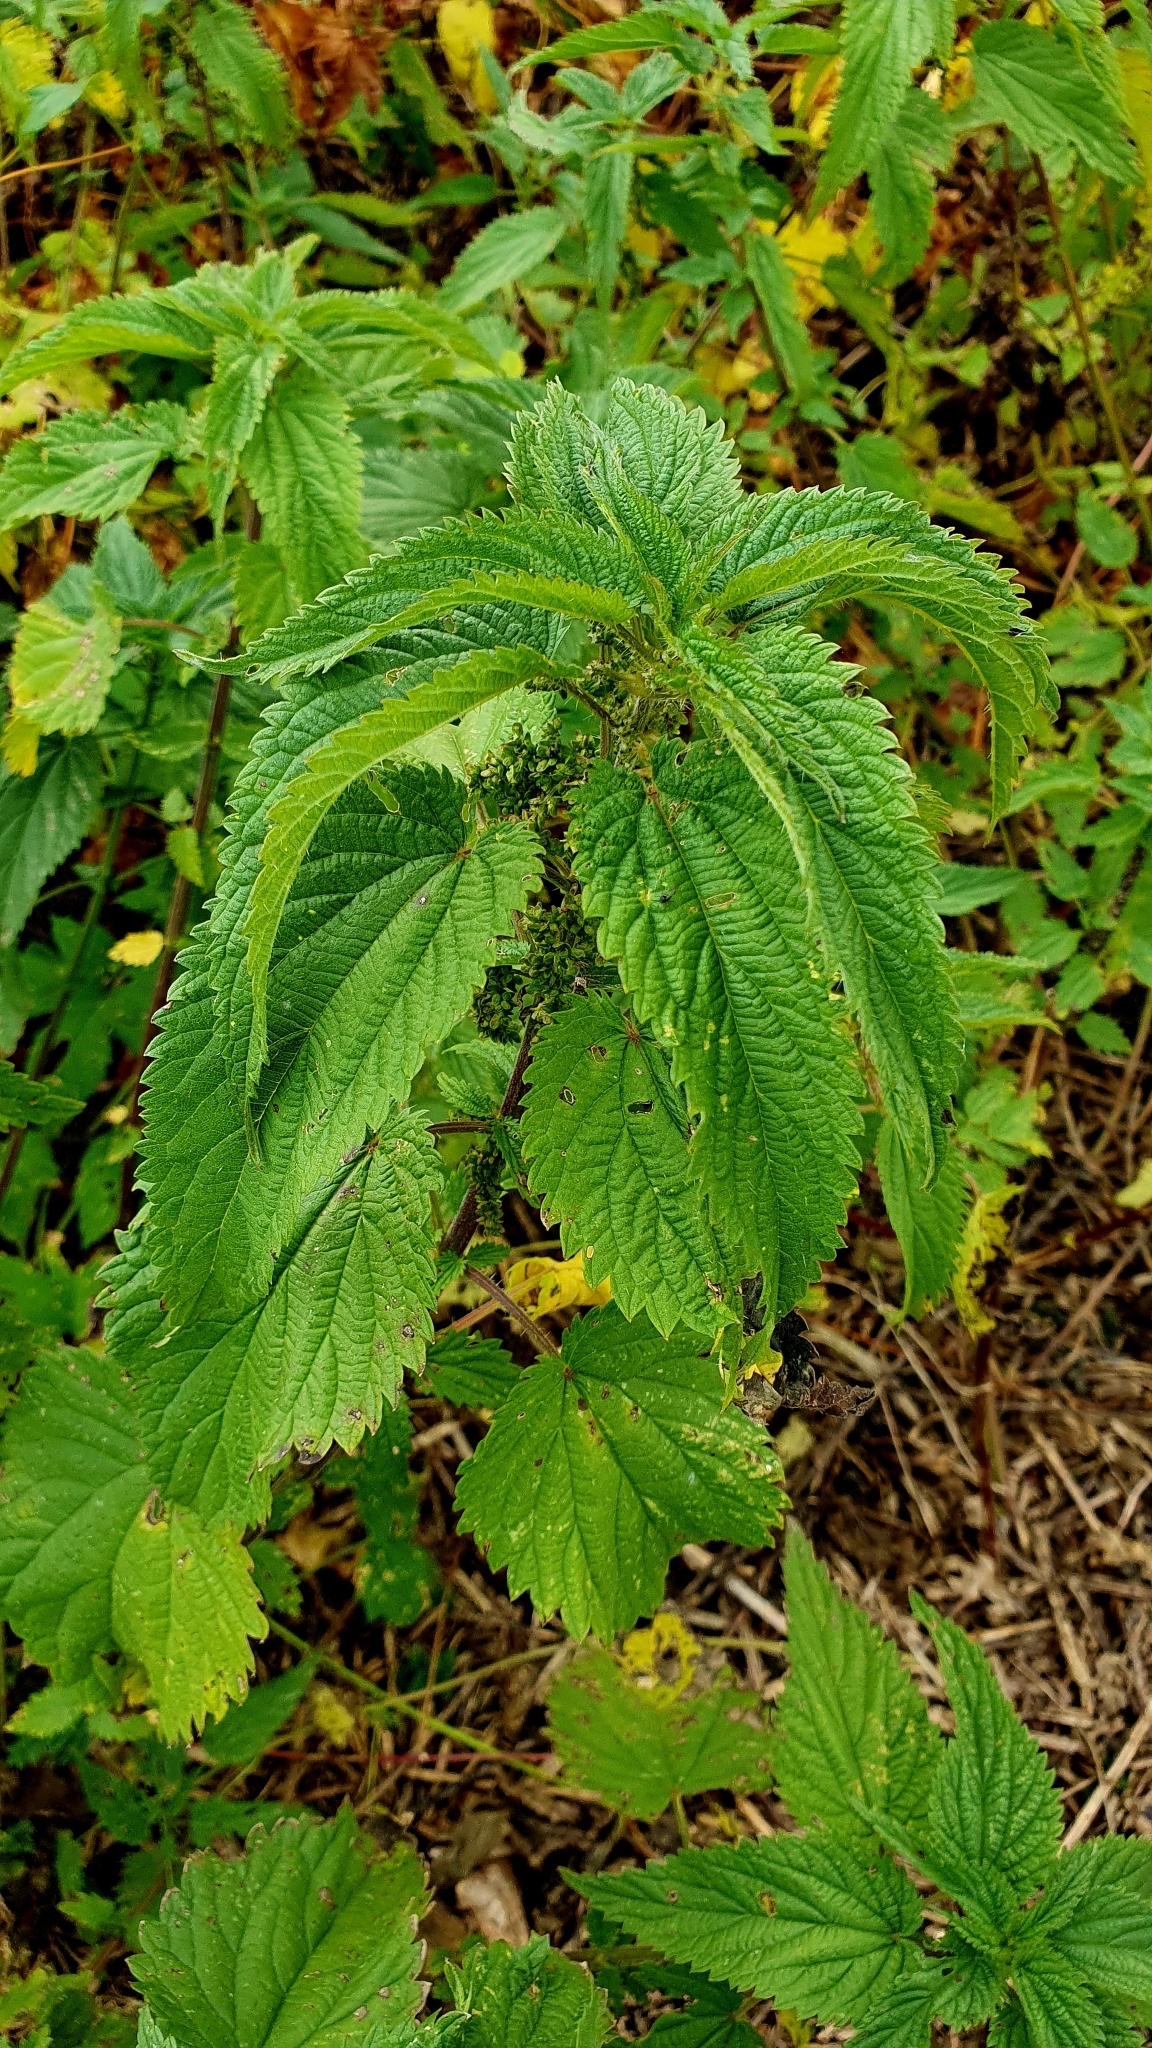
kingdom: Plantae
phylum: Tracheophyta
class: Magnoliopsida
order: Rosales
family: Urticaceae
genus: Urtica
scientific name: Urtica dioica
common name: Common nettle
